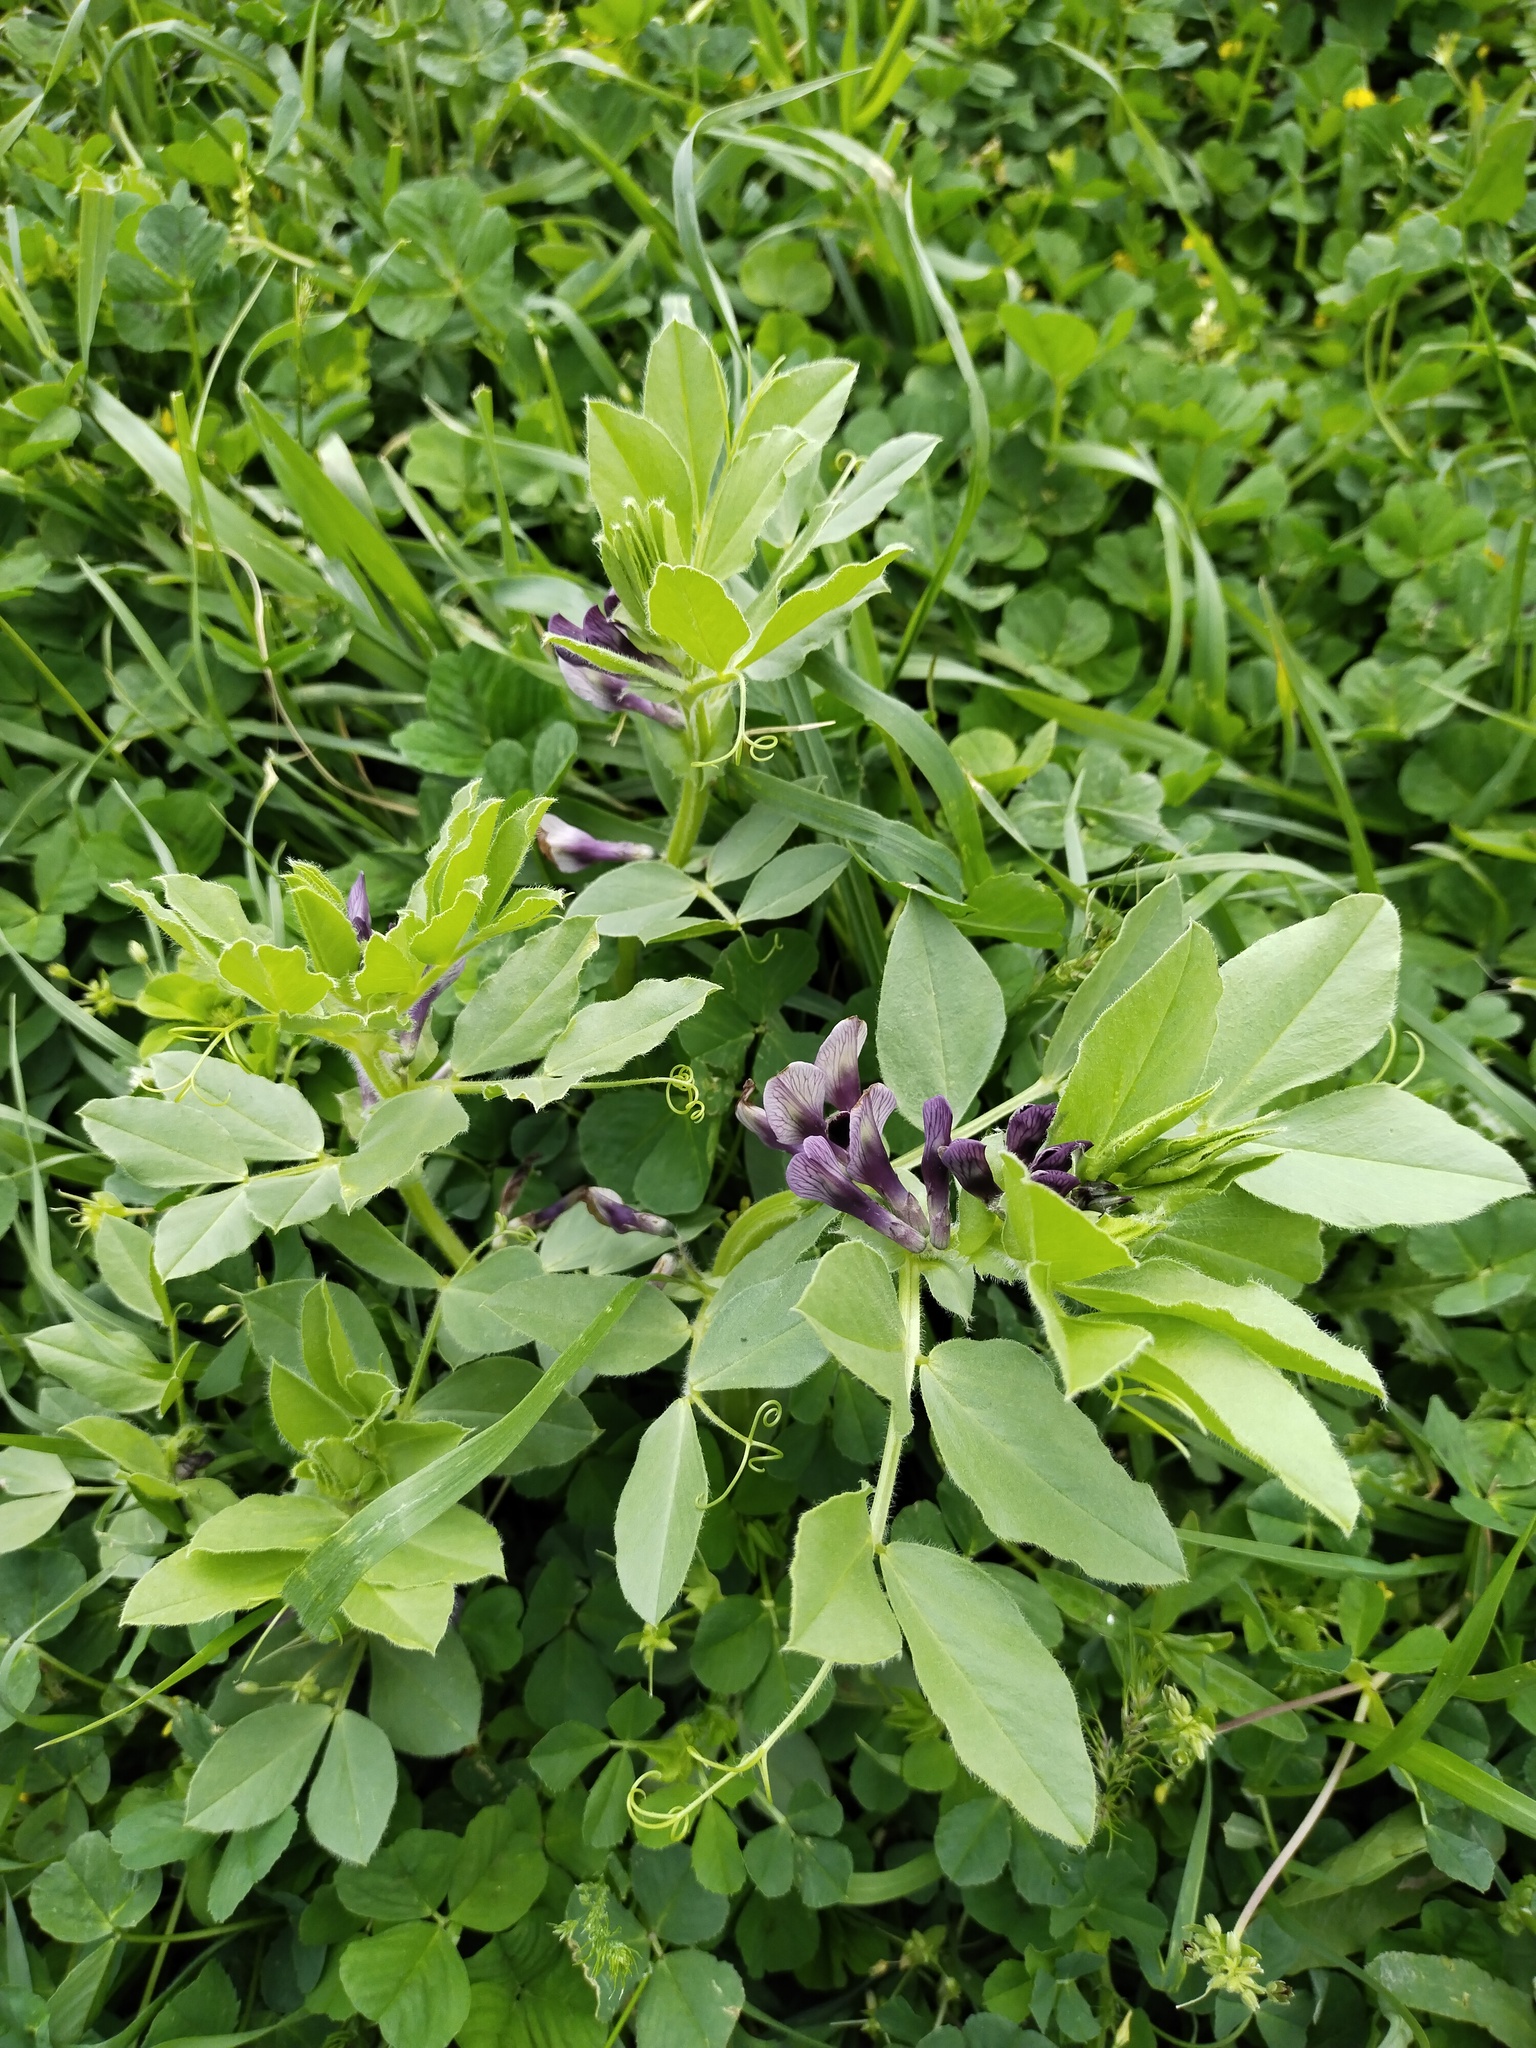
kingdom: Plantae
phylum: Tracheophyta
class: Magnoliopsida
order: Fabales
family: Fabaceae
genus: Vicia
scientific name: Vicia narbonensis
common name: Narbonne vetch
